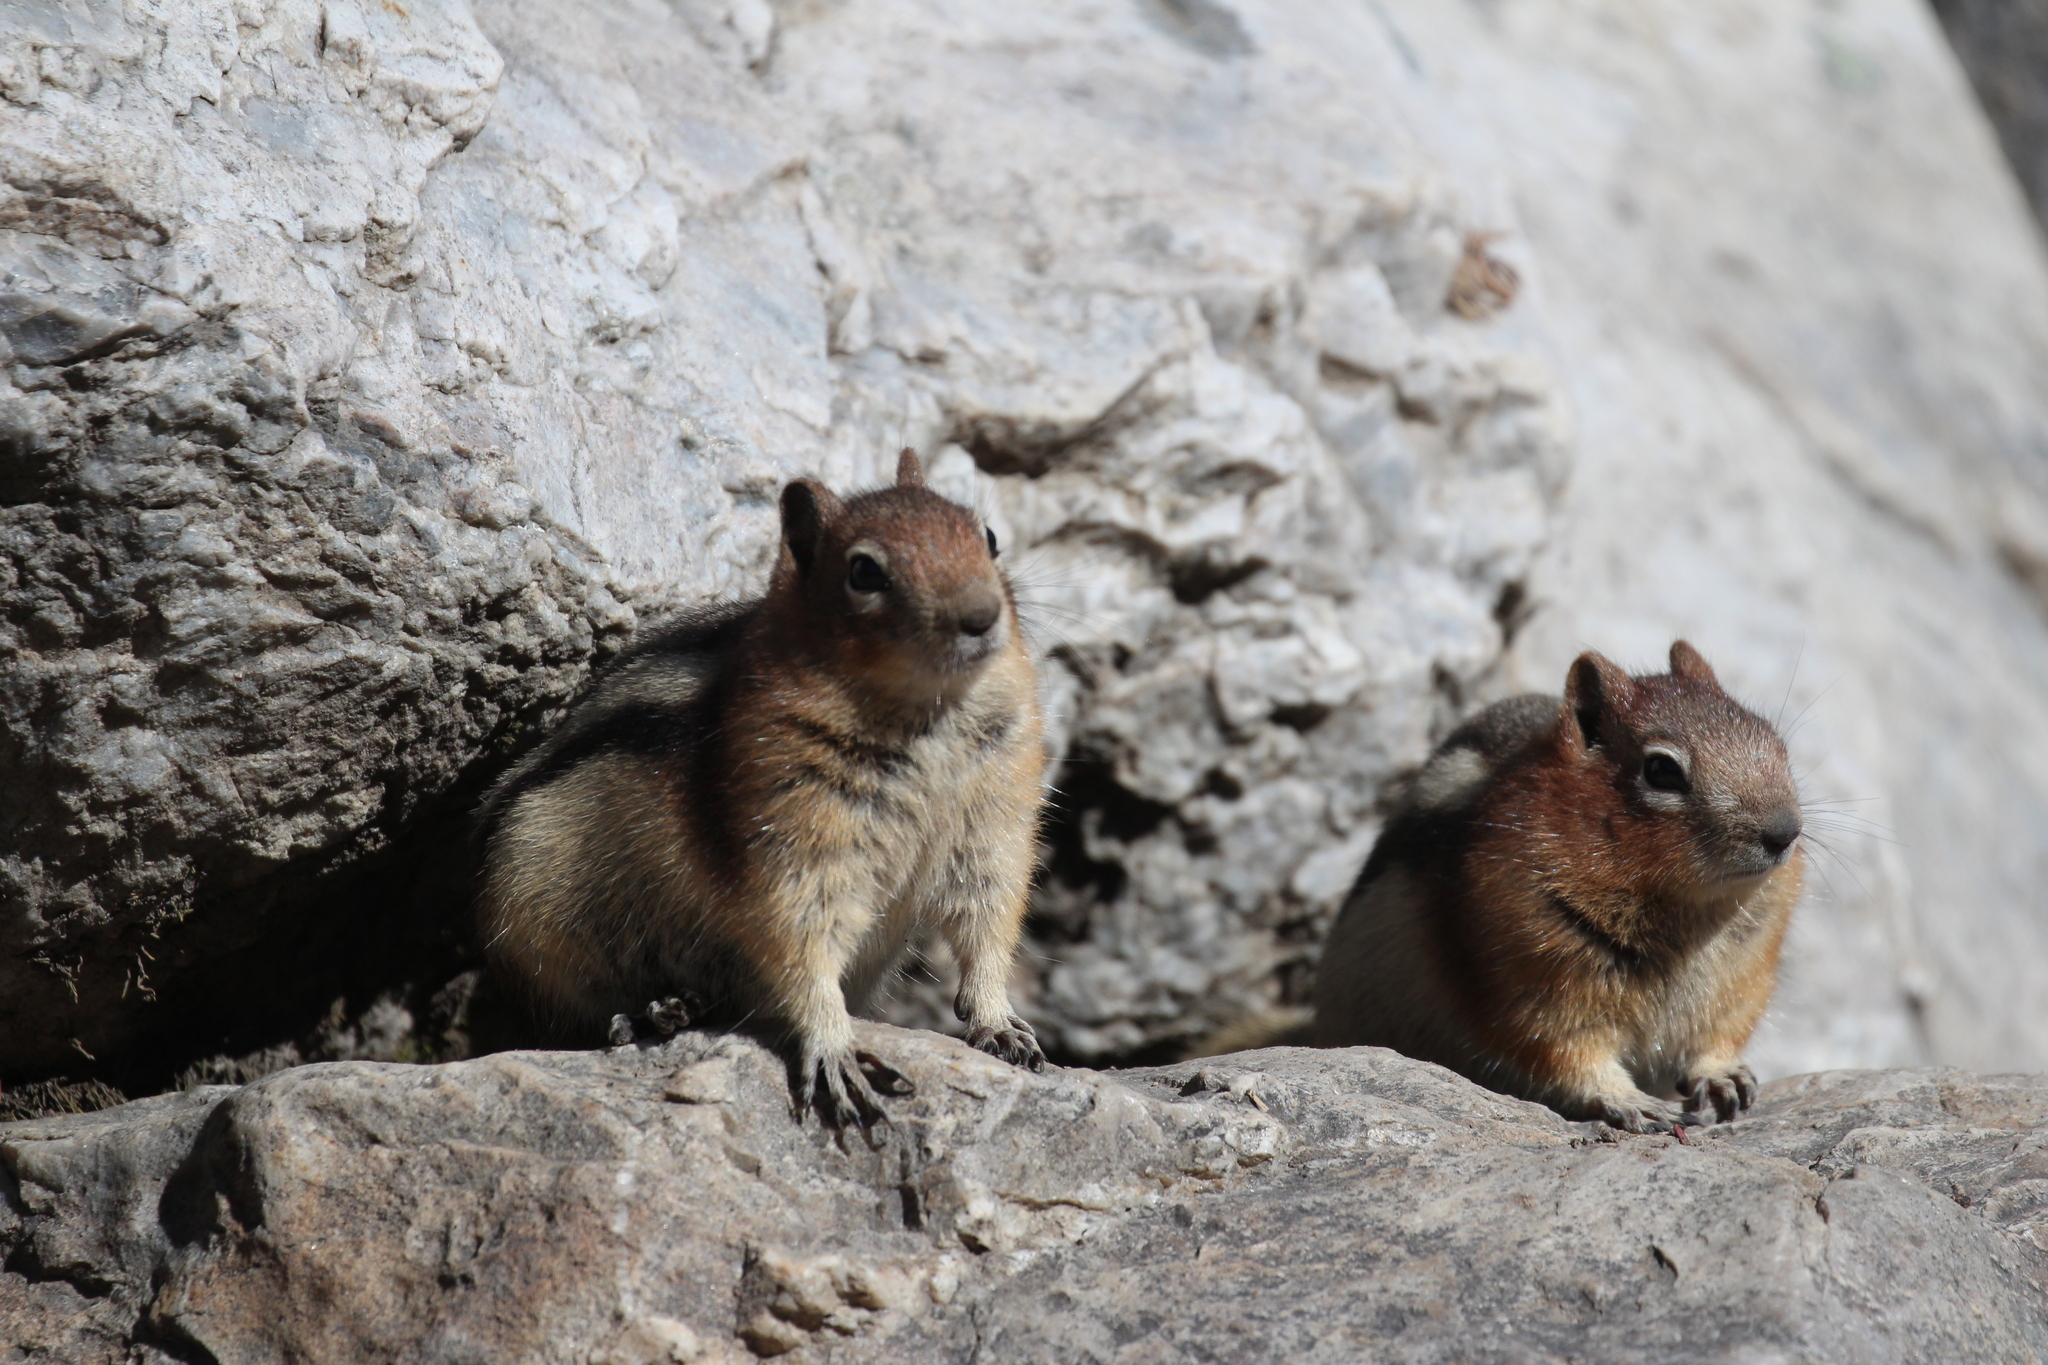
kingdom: Animalia
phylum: Chordata
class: Mammalia
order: Rodentia
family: Sciuridae
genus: Callospermophilus
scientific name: Callospermophilus lateralis
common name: Golden-mantled ground squirrel
